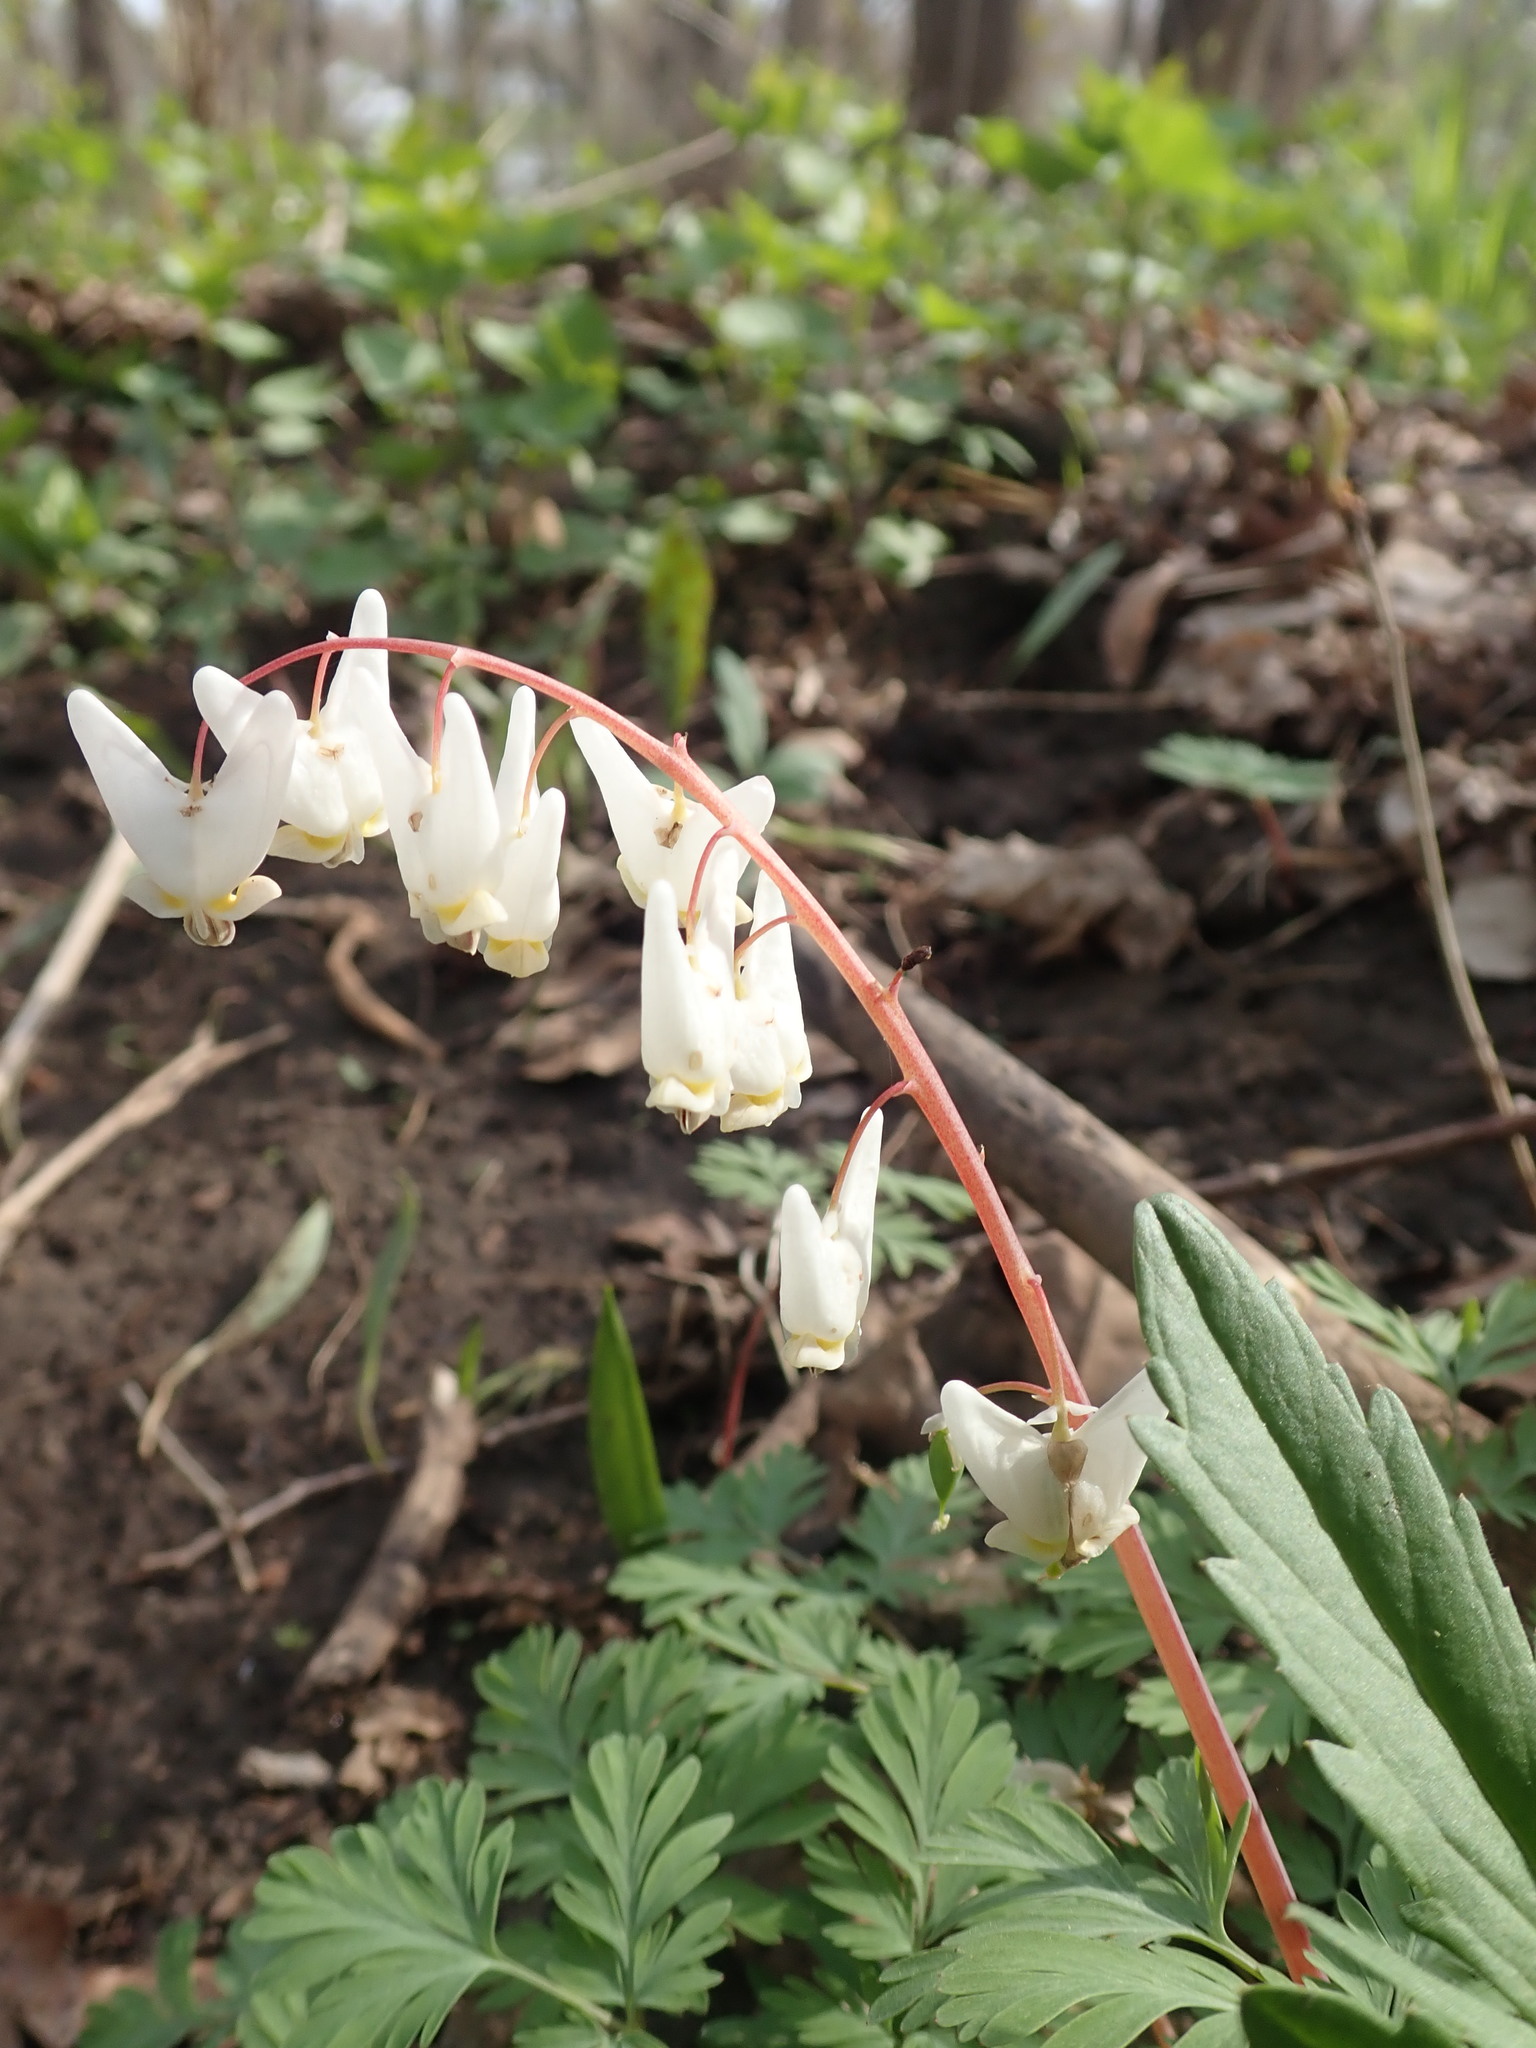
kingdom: Plantae
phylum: Tracheophyta
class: Magnoliopsida
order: Ranunculales
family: Papaveraceae
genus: Dicentra
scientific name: Dicentra cucullaria
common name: Dutchman's breeches
